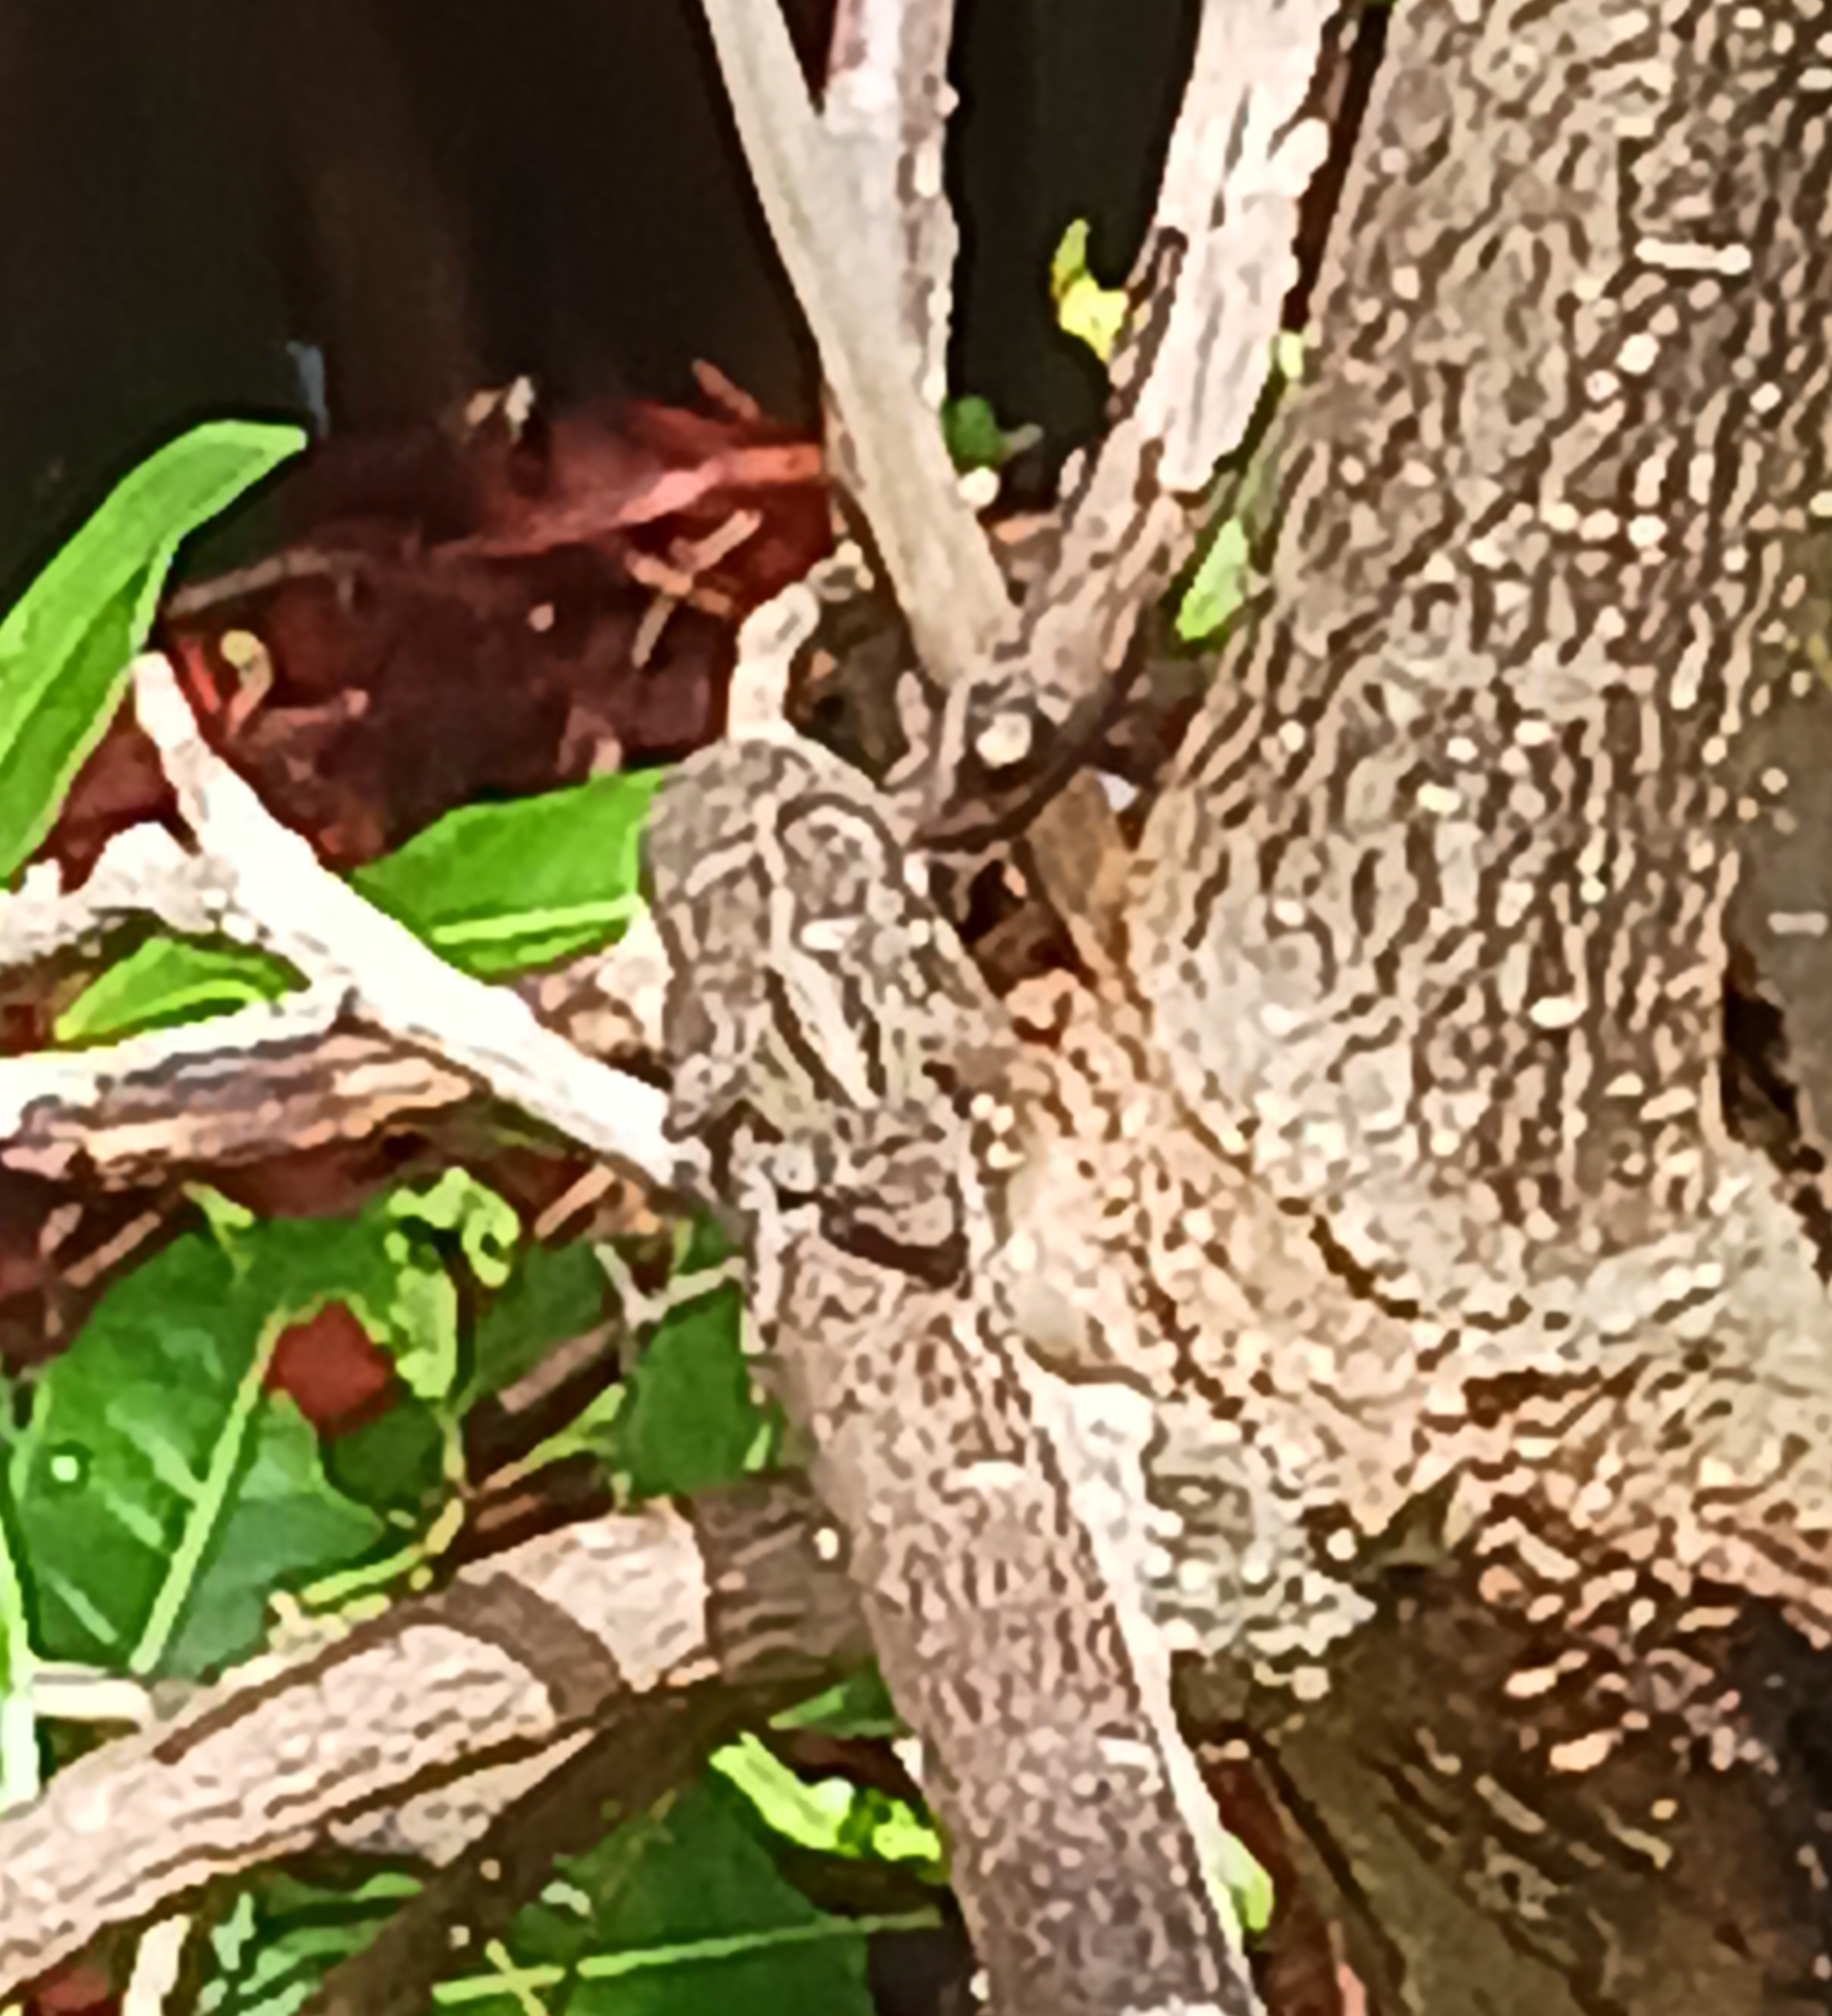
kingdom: Animalia
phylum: Chordata
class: Squamata
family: Dactyloidae
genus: Anolis
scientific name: Anolis sagrei
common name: Brown anole
